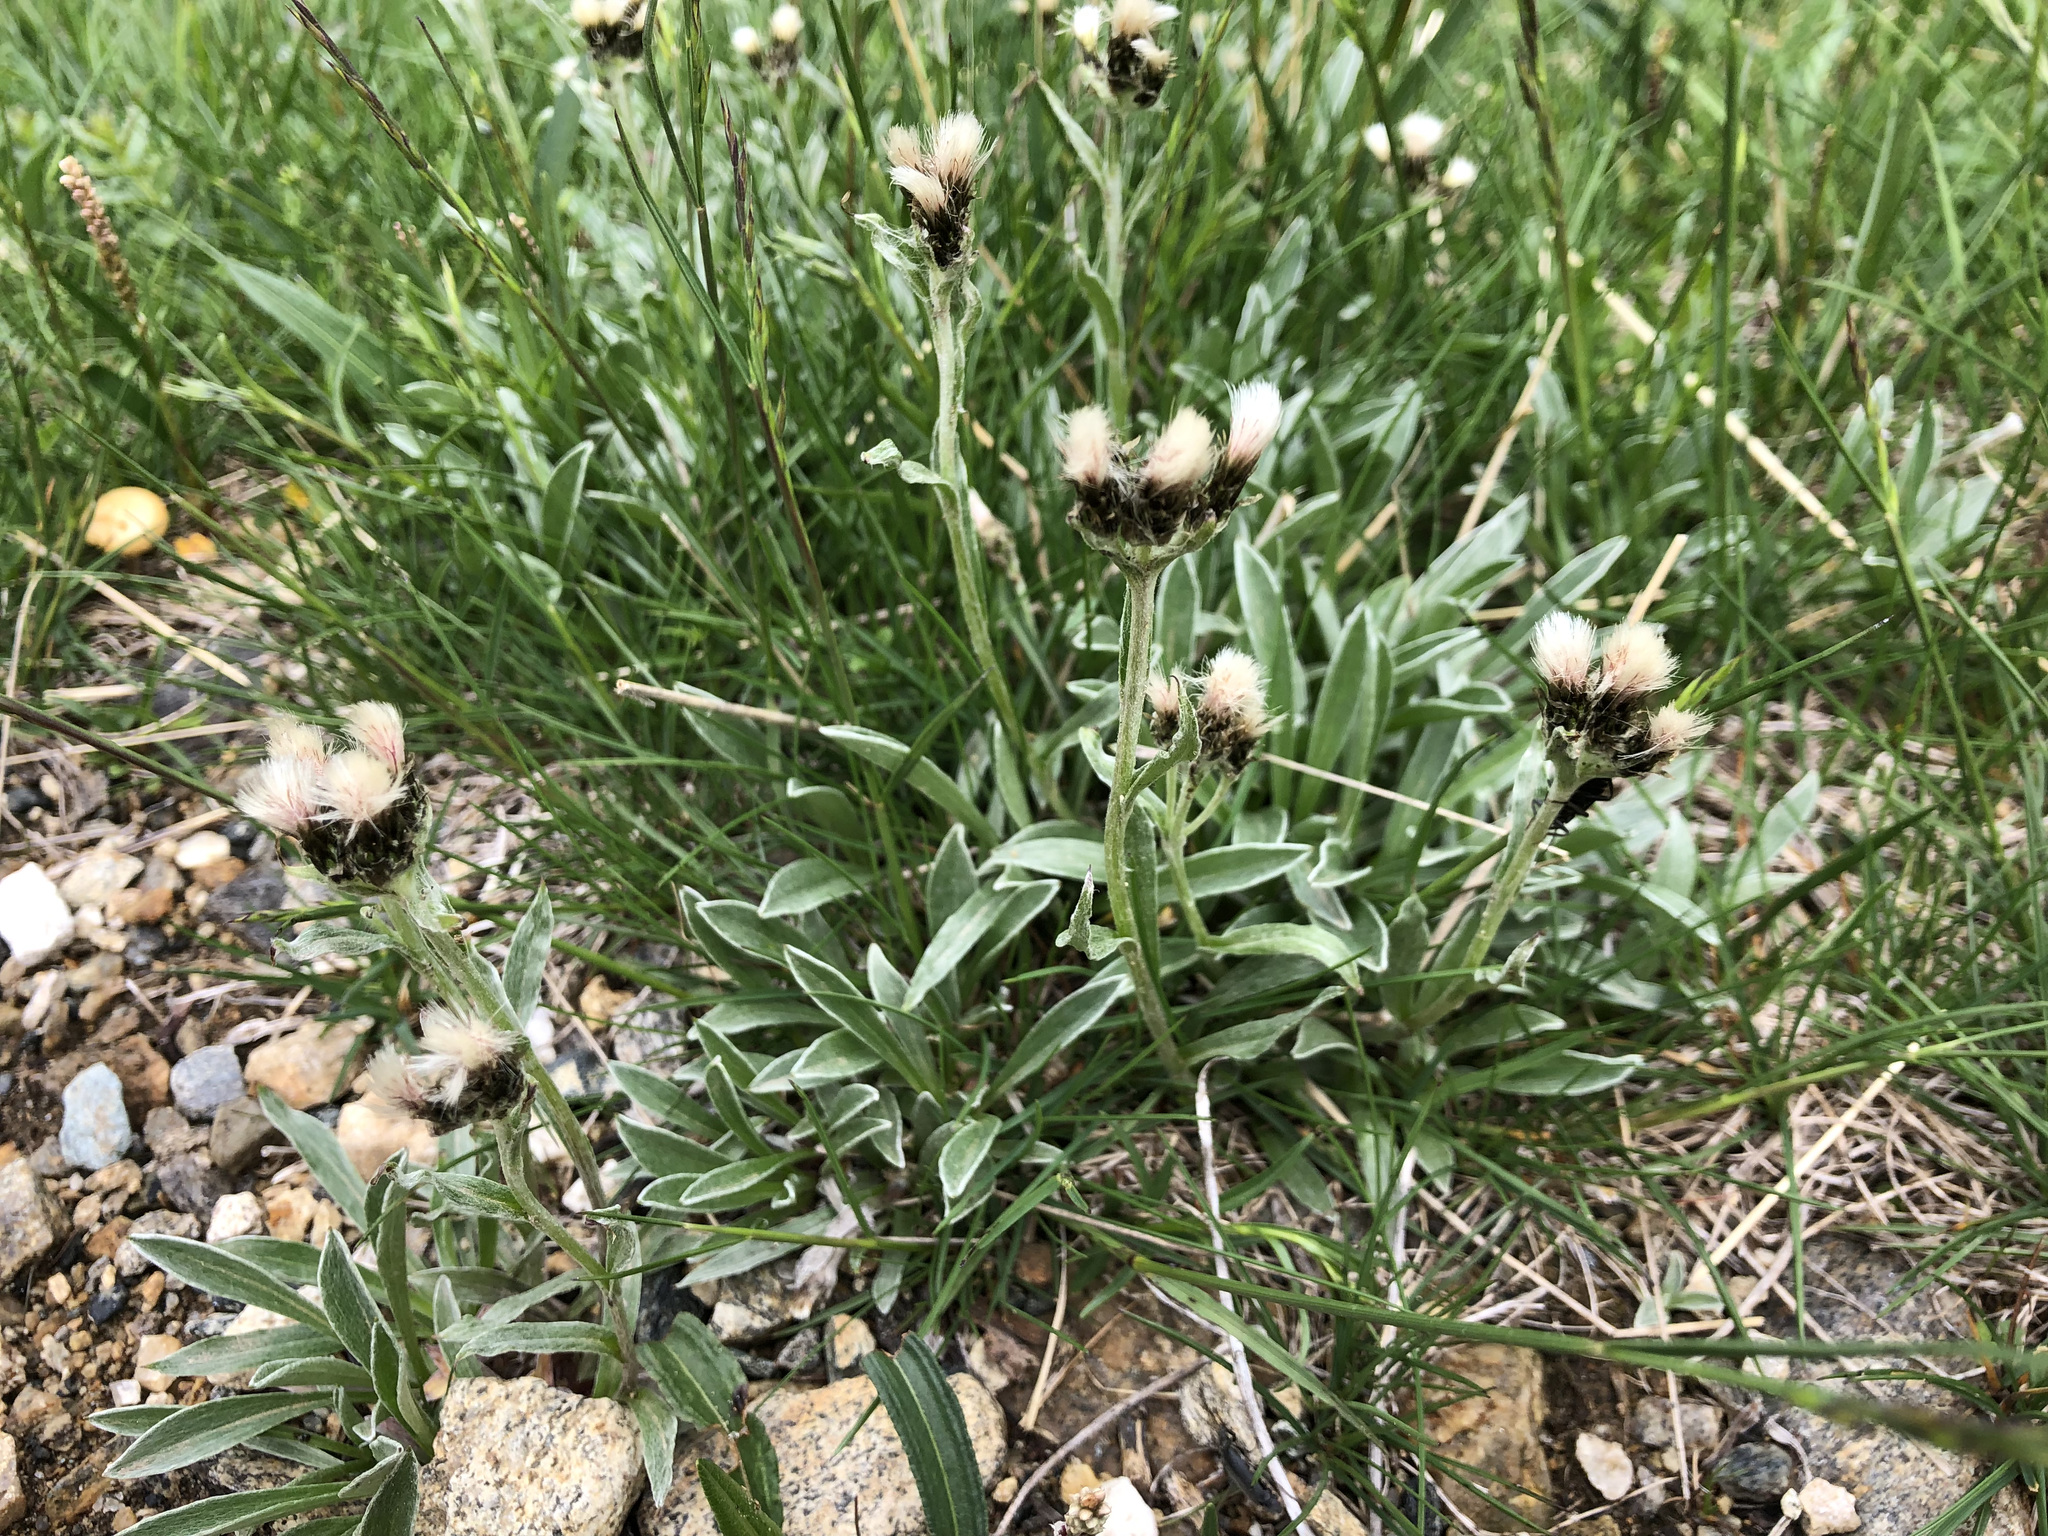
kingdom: Plantae
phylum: Tracheophyta
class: Magnoliopsida
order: Asterales
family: Asteraceae
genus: Antennaria
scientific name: Antennaria carpatica
